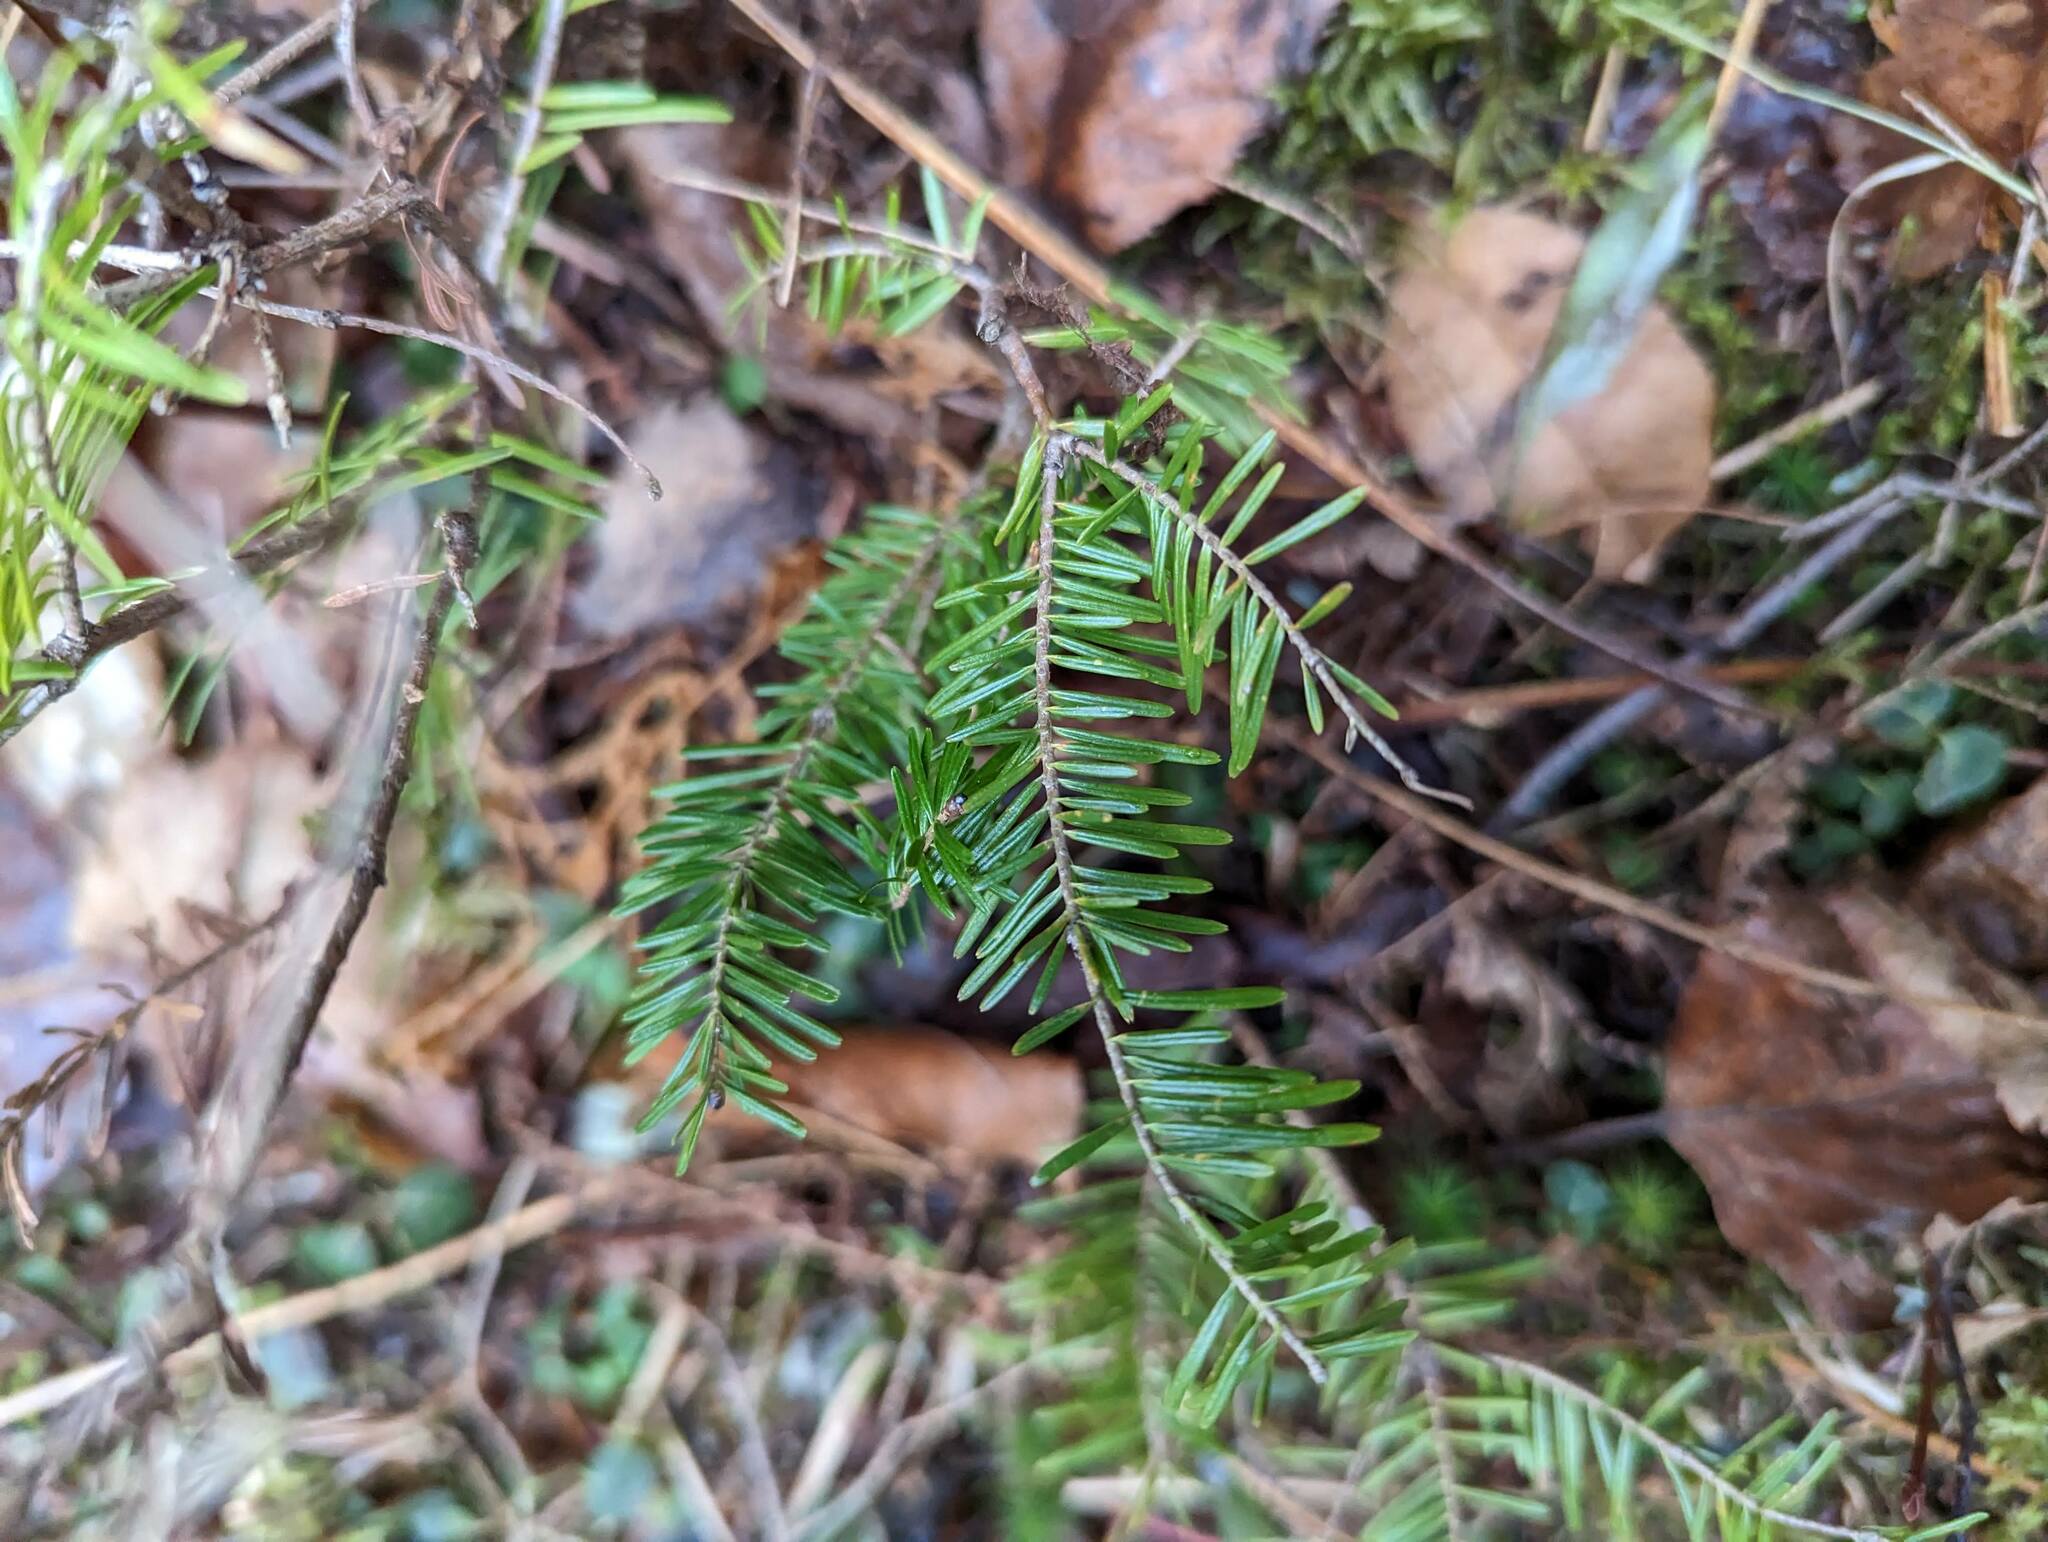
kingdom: Plantae
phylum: Tracheophyta
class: Pinopsida
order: Pinales
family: Pinaceae
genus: Abies
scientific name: Abies balsamea
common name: Balsam fir
